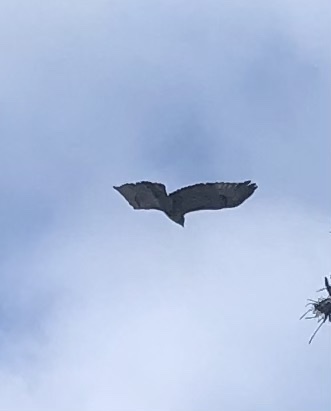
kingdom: Animalia
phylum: Chordata
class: Aves
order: Accipitriformes
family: Accipitridae
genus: Buteo
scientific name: Buteo jamaicensis
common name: Red-tailed hawk
